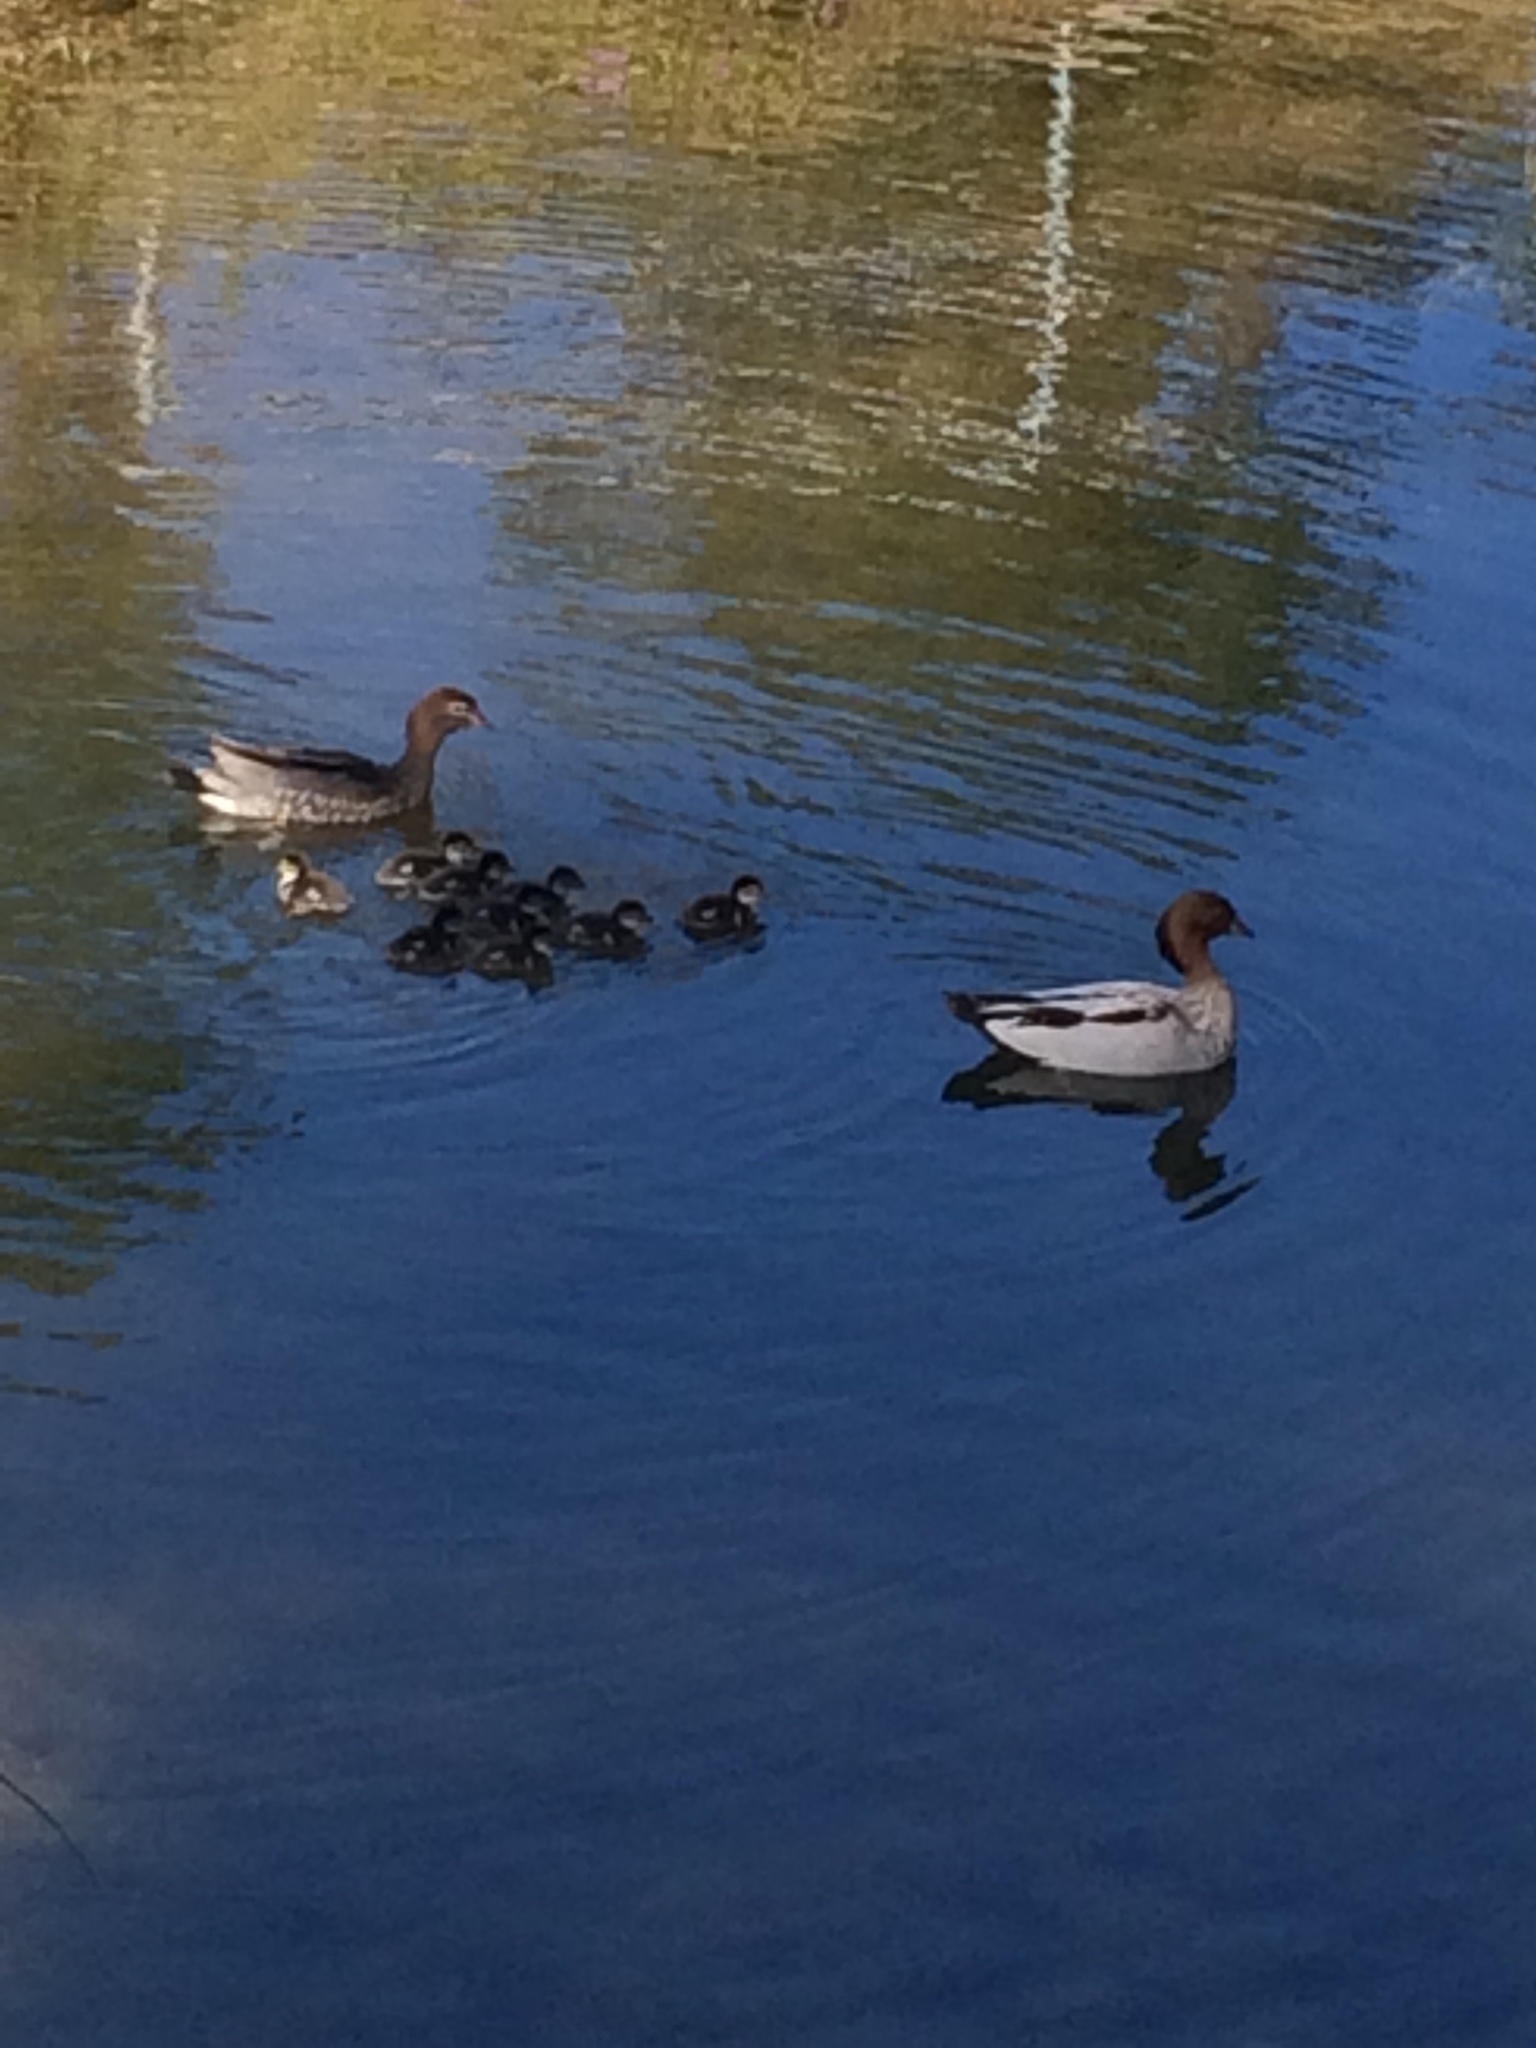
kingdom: Animalia
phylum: Chordata
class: Aves
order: Anseriformes
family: Anatidae
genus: Chenonetta
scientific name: Chenonetta jubata
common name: Maned duck
